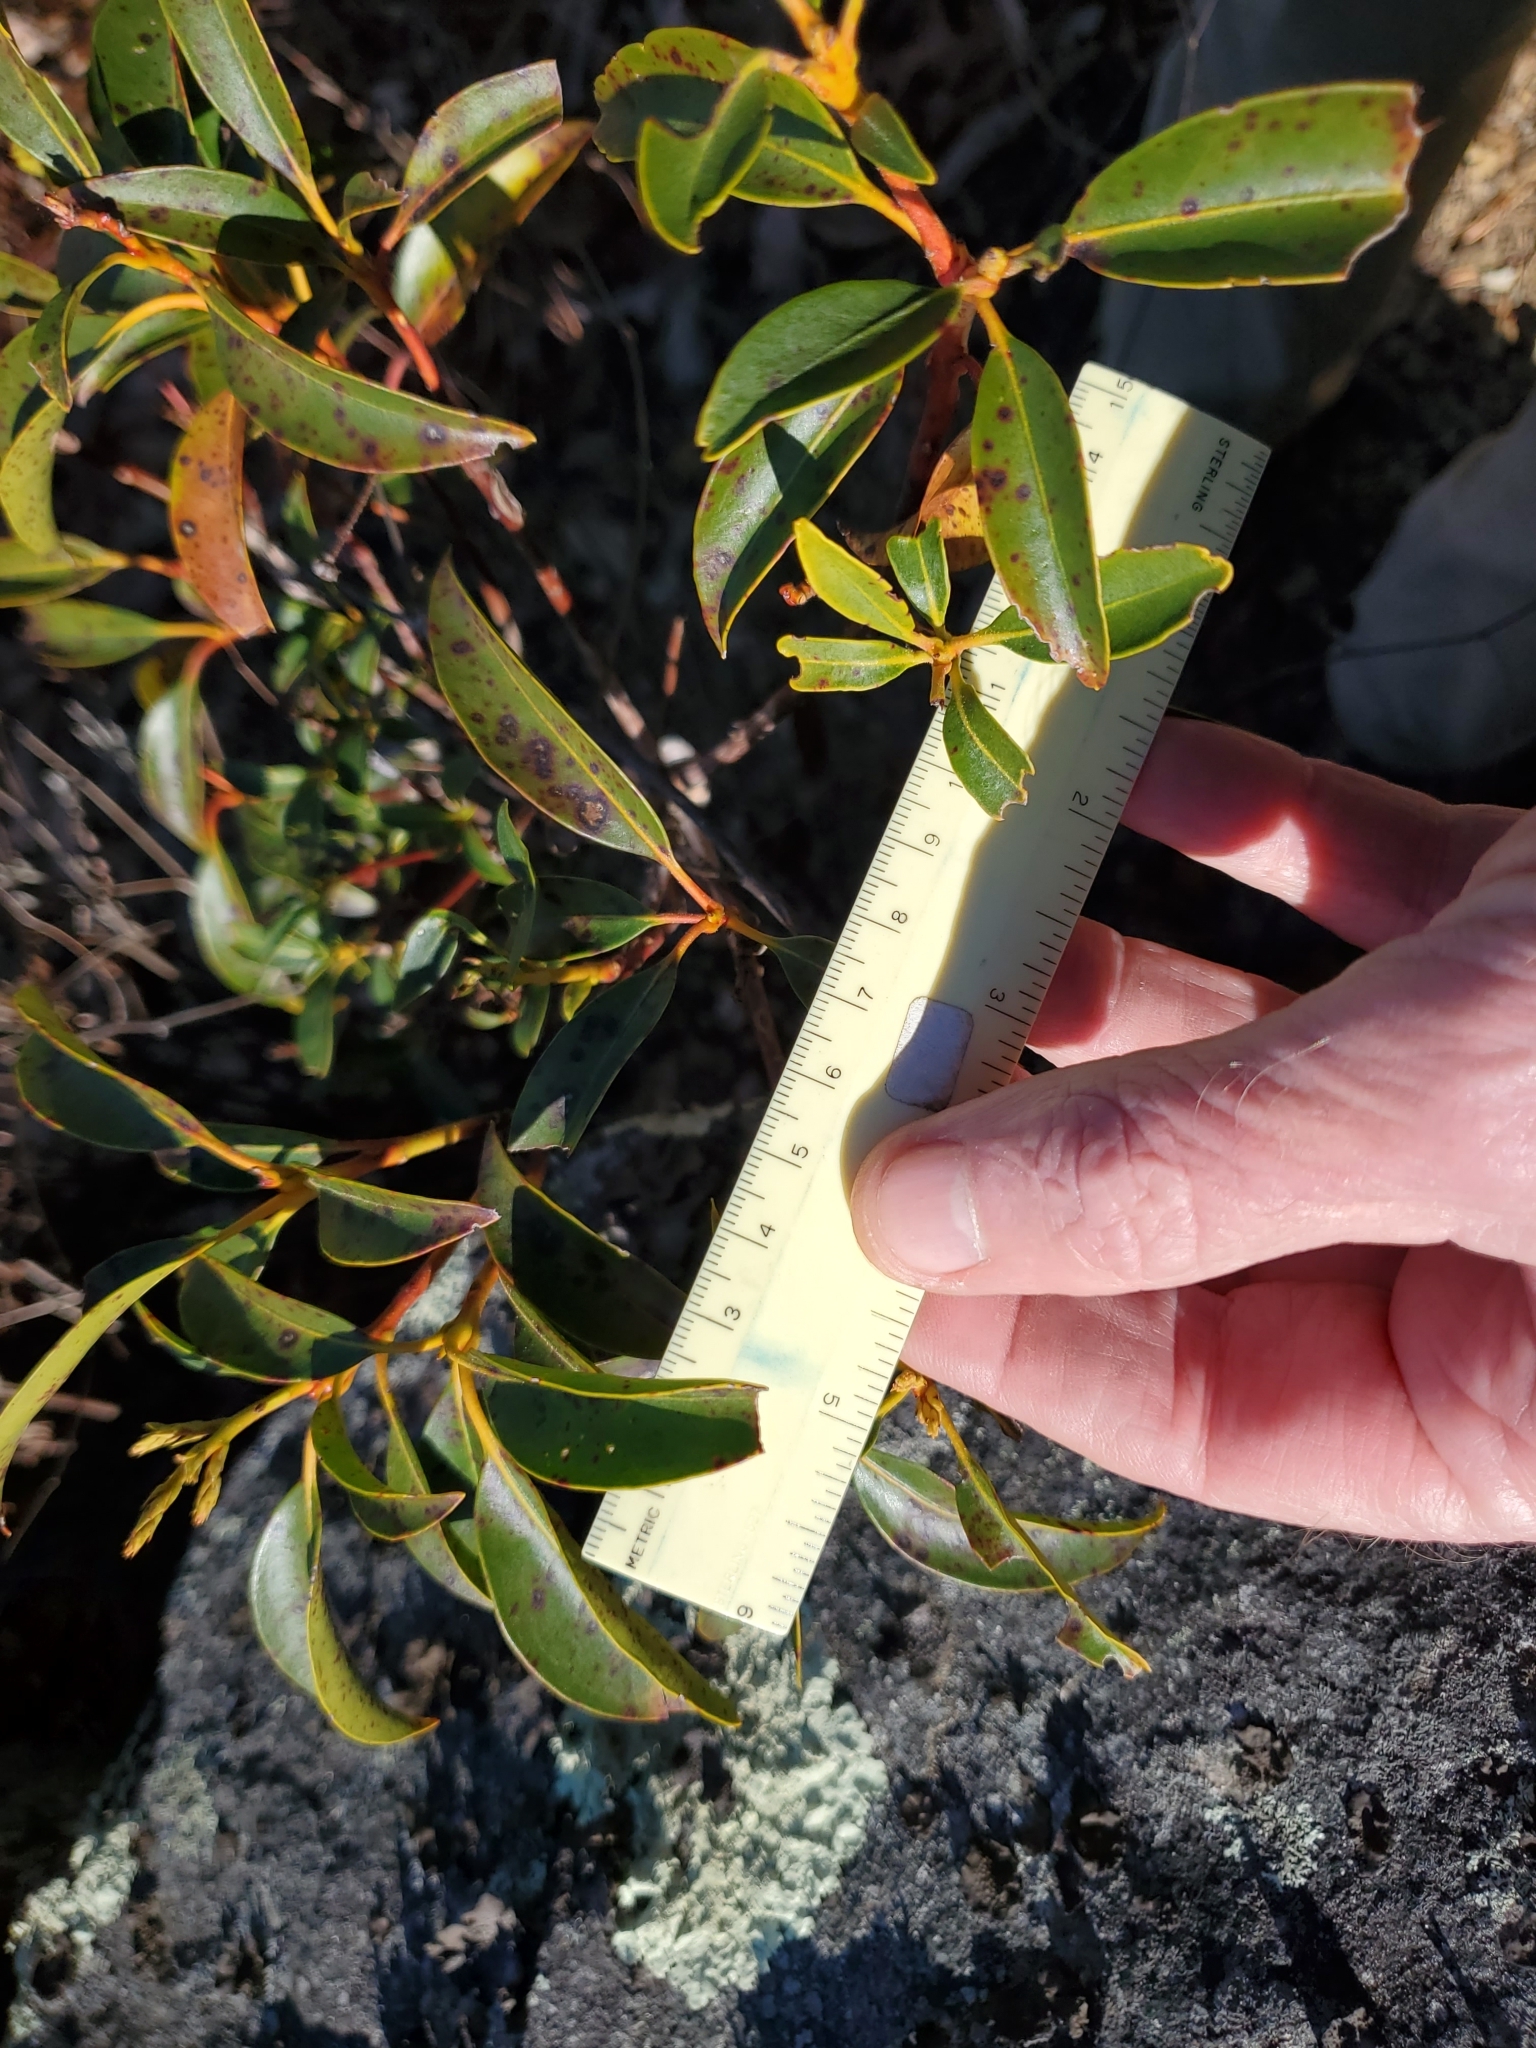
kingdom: Plantae
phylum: Tracheophyta
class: Magnoliopsida
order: Ericales
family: Ericaceae
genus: Kalmia
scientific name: Kalmia latifolia
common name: Mountain-laurel
